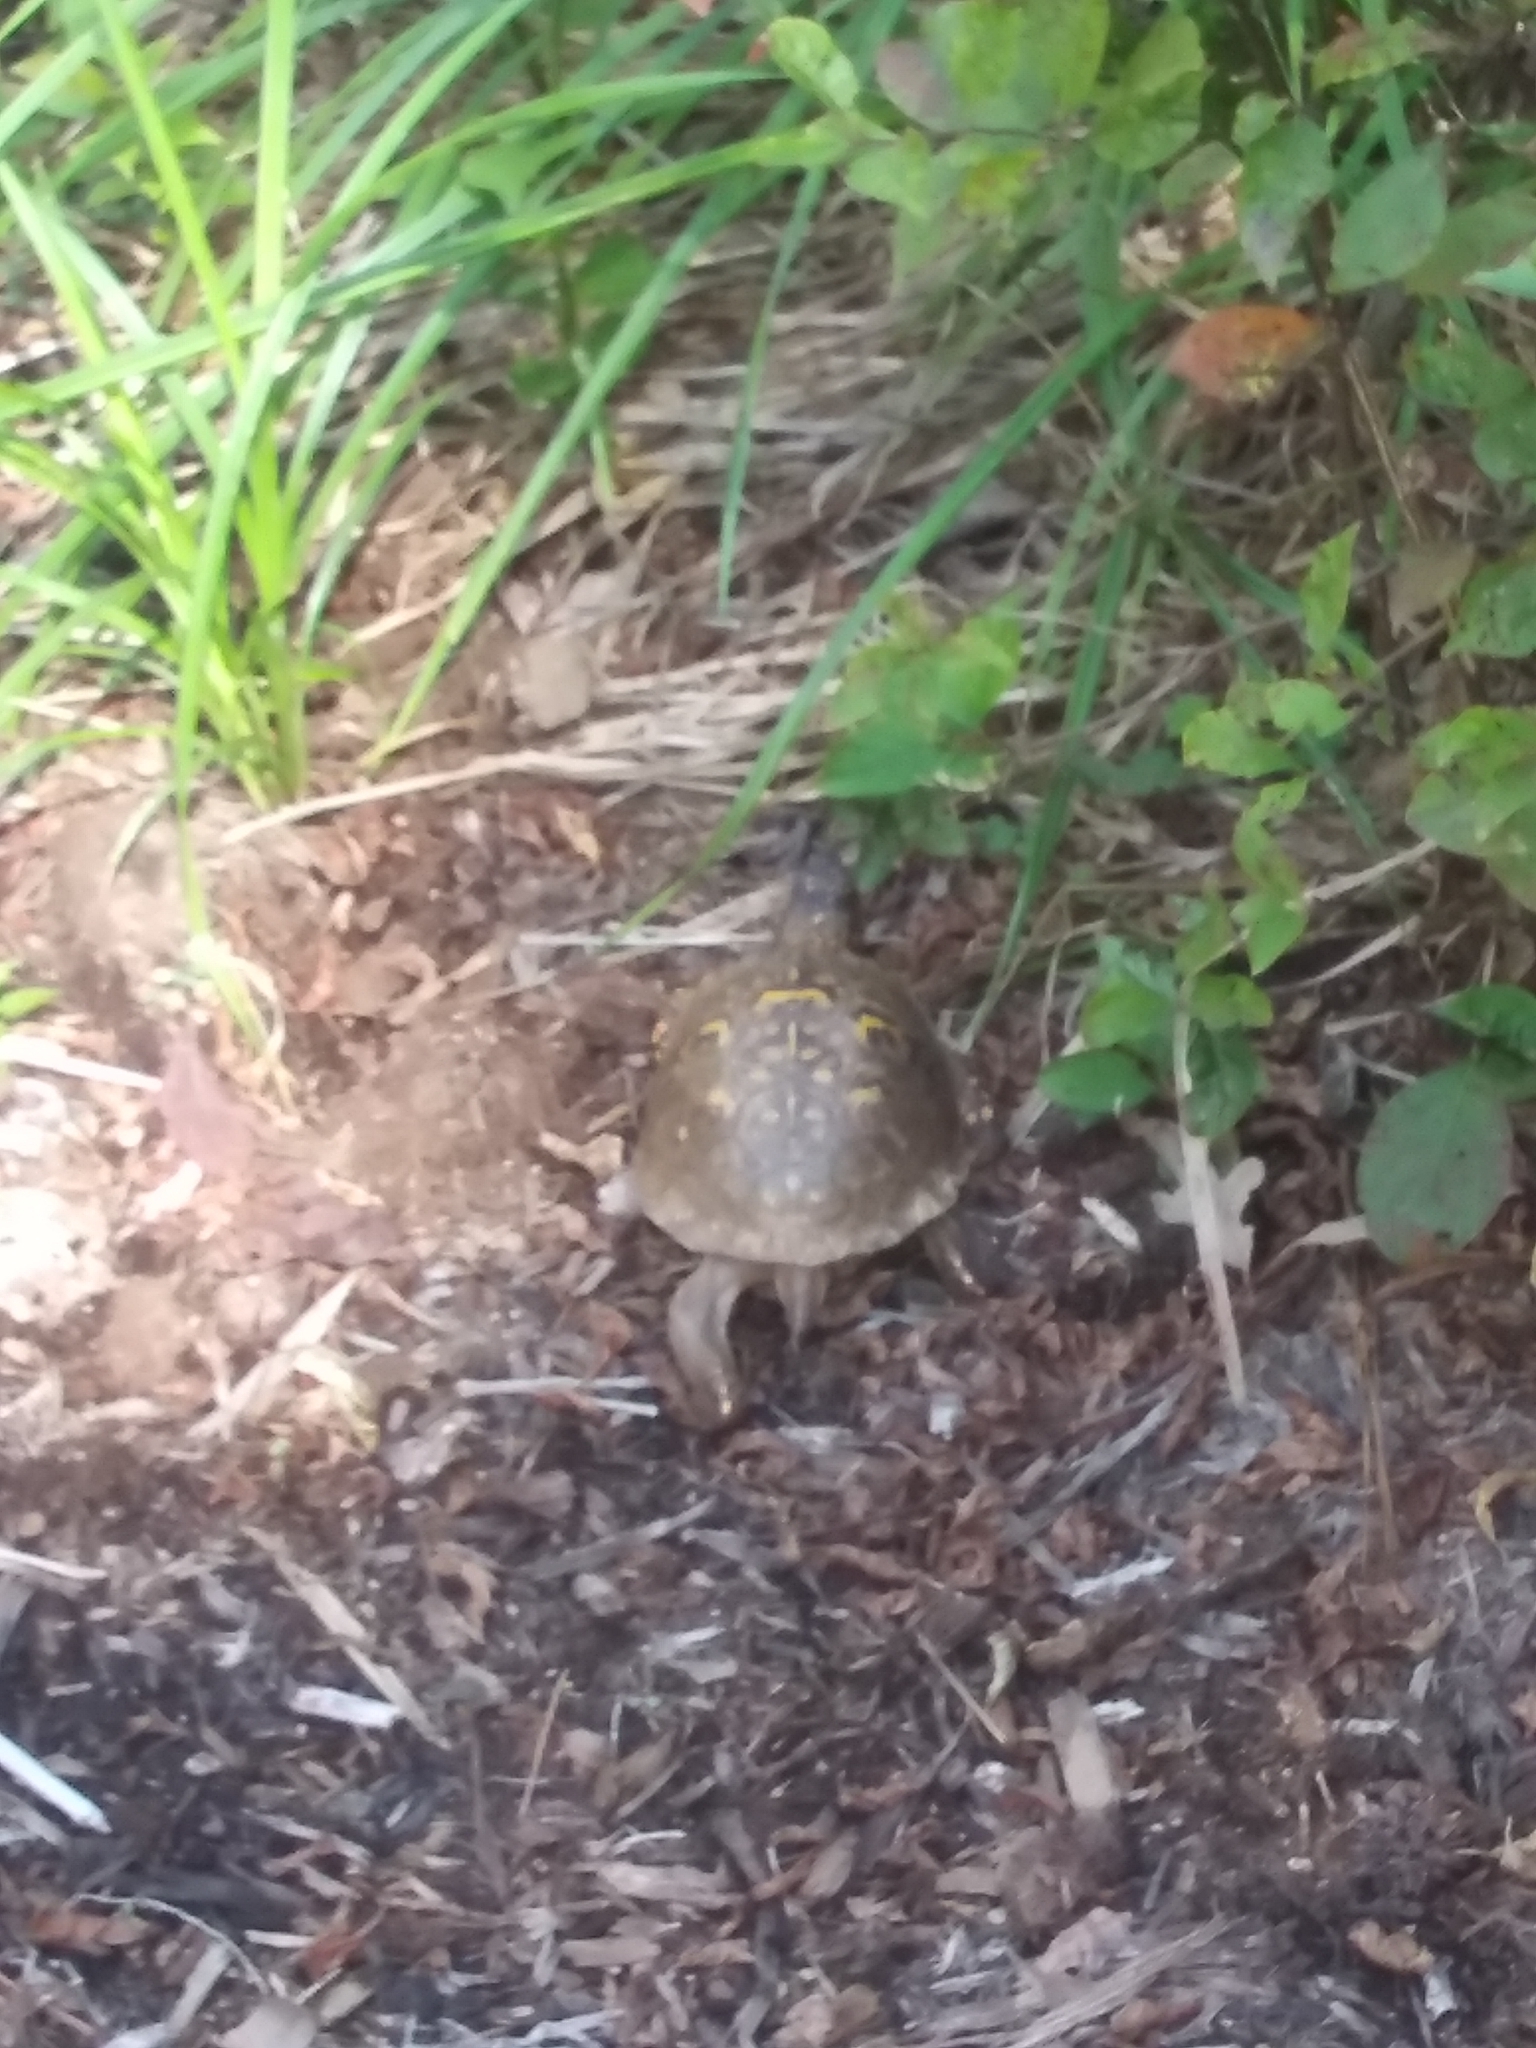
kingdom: Animalia
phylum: Chordata
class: Testudines
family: Emydidae
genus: Terrapene
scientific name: Terrapene carolina
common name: Common box turtle
